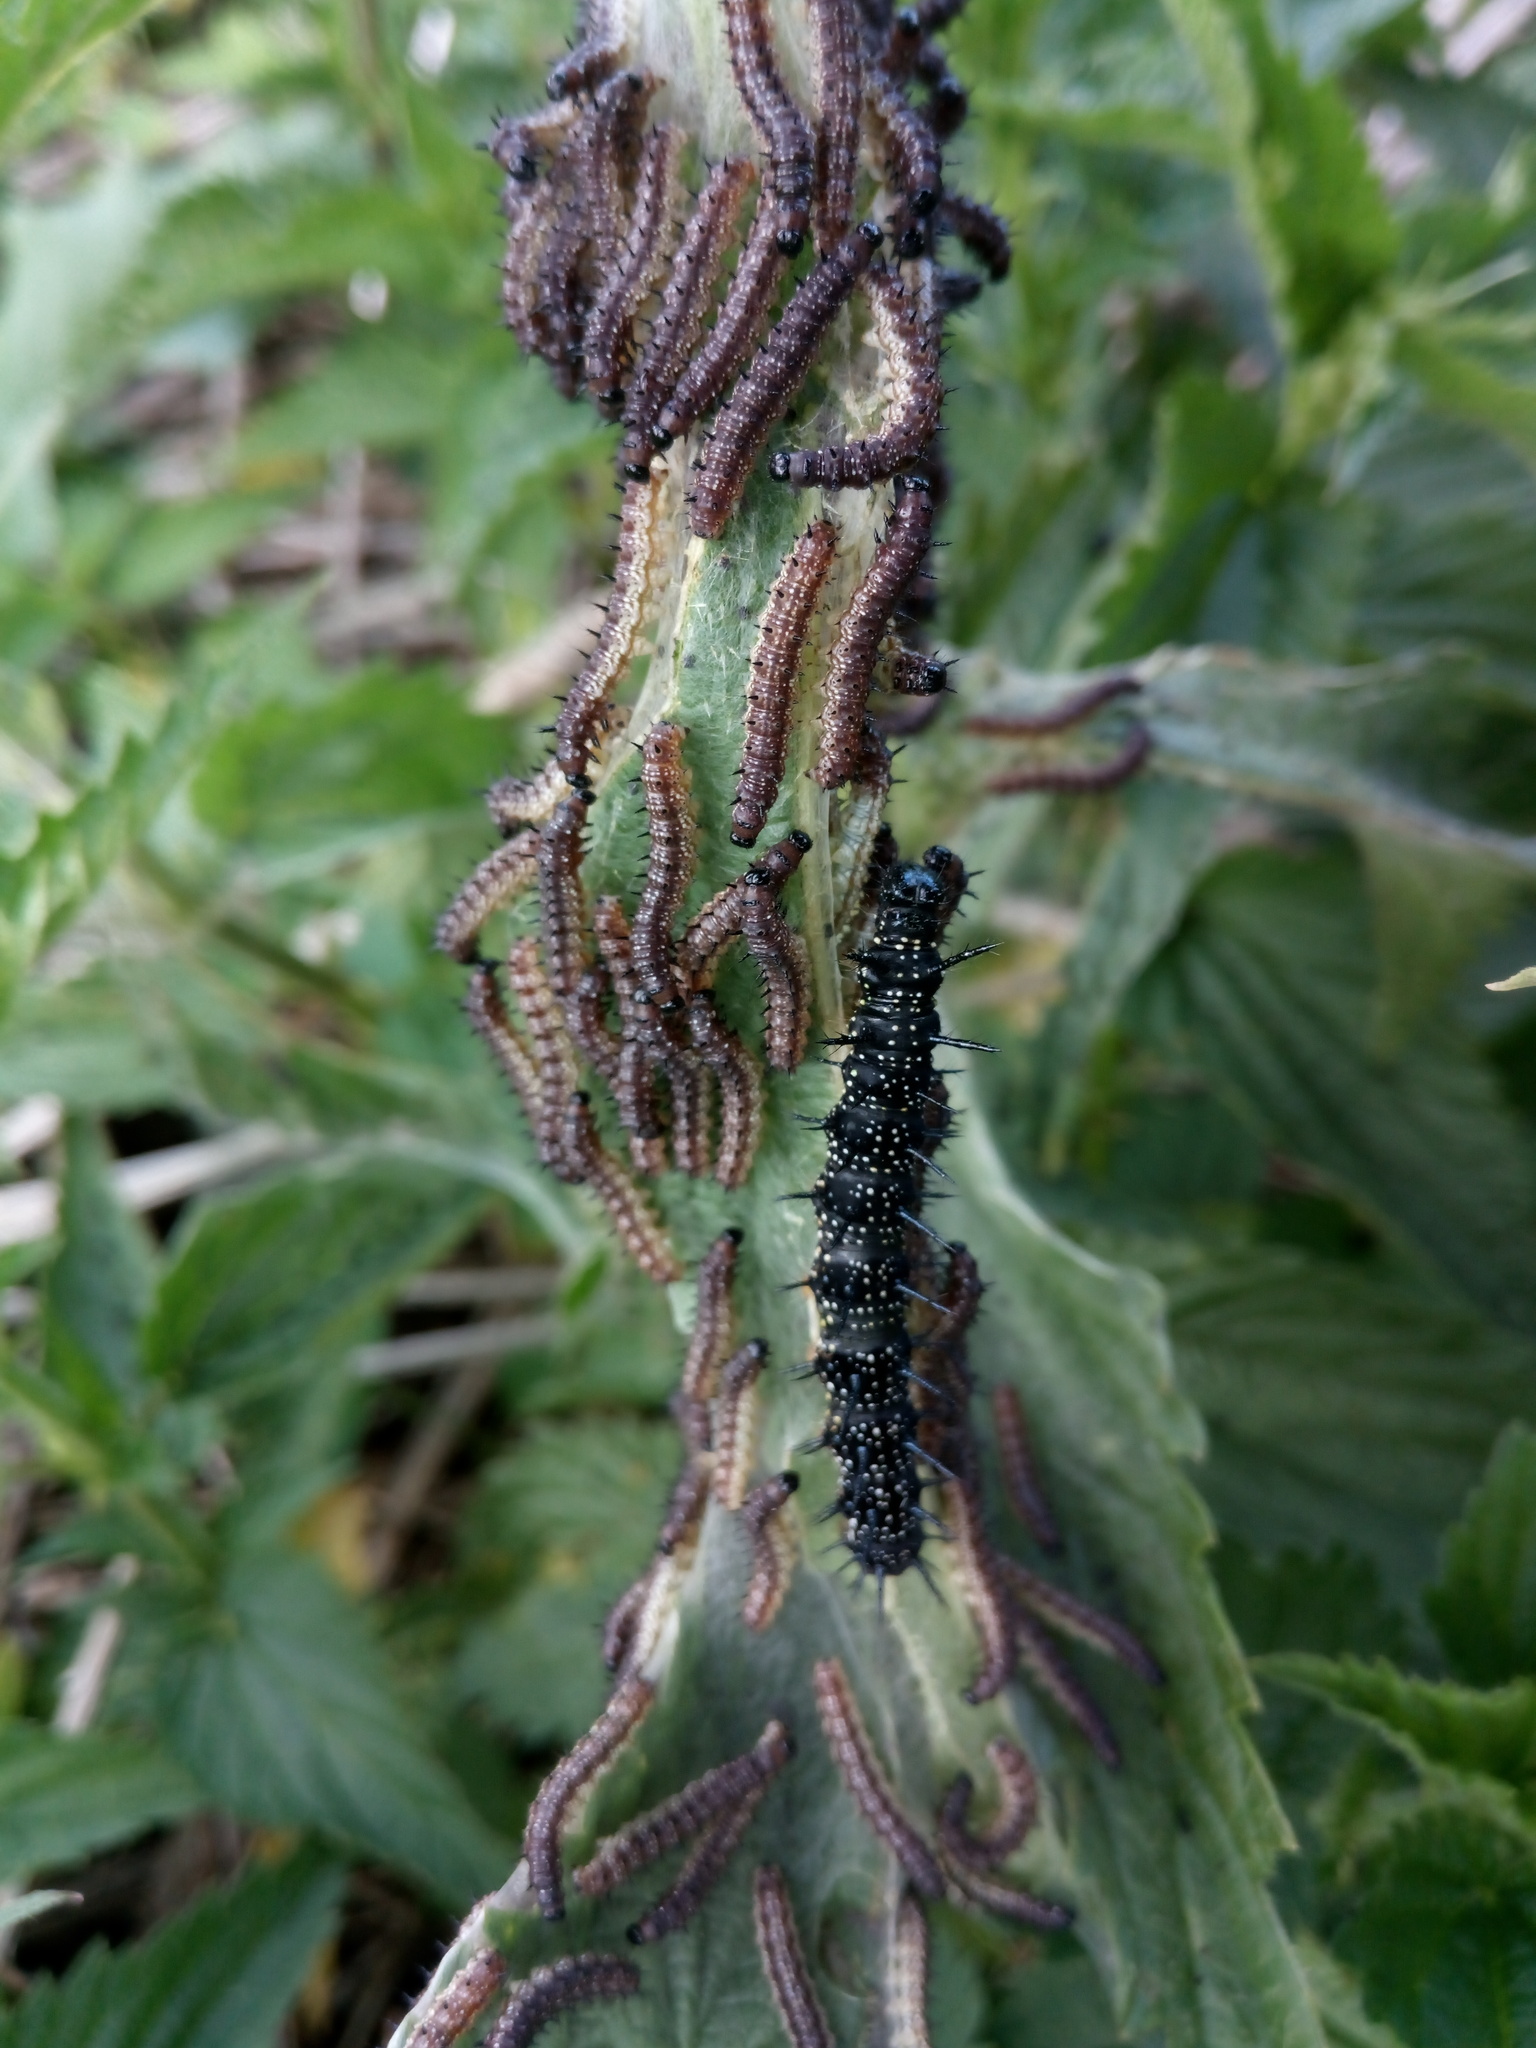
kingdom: Animalia
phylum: Arthropoda
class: Insecta
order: Lepidoptera
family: Nymphalidae
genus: Aglais
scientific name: Aglais io
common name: Peacock
